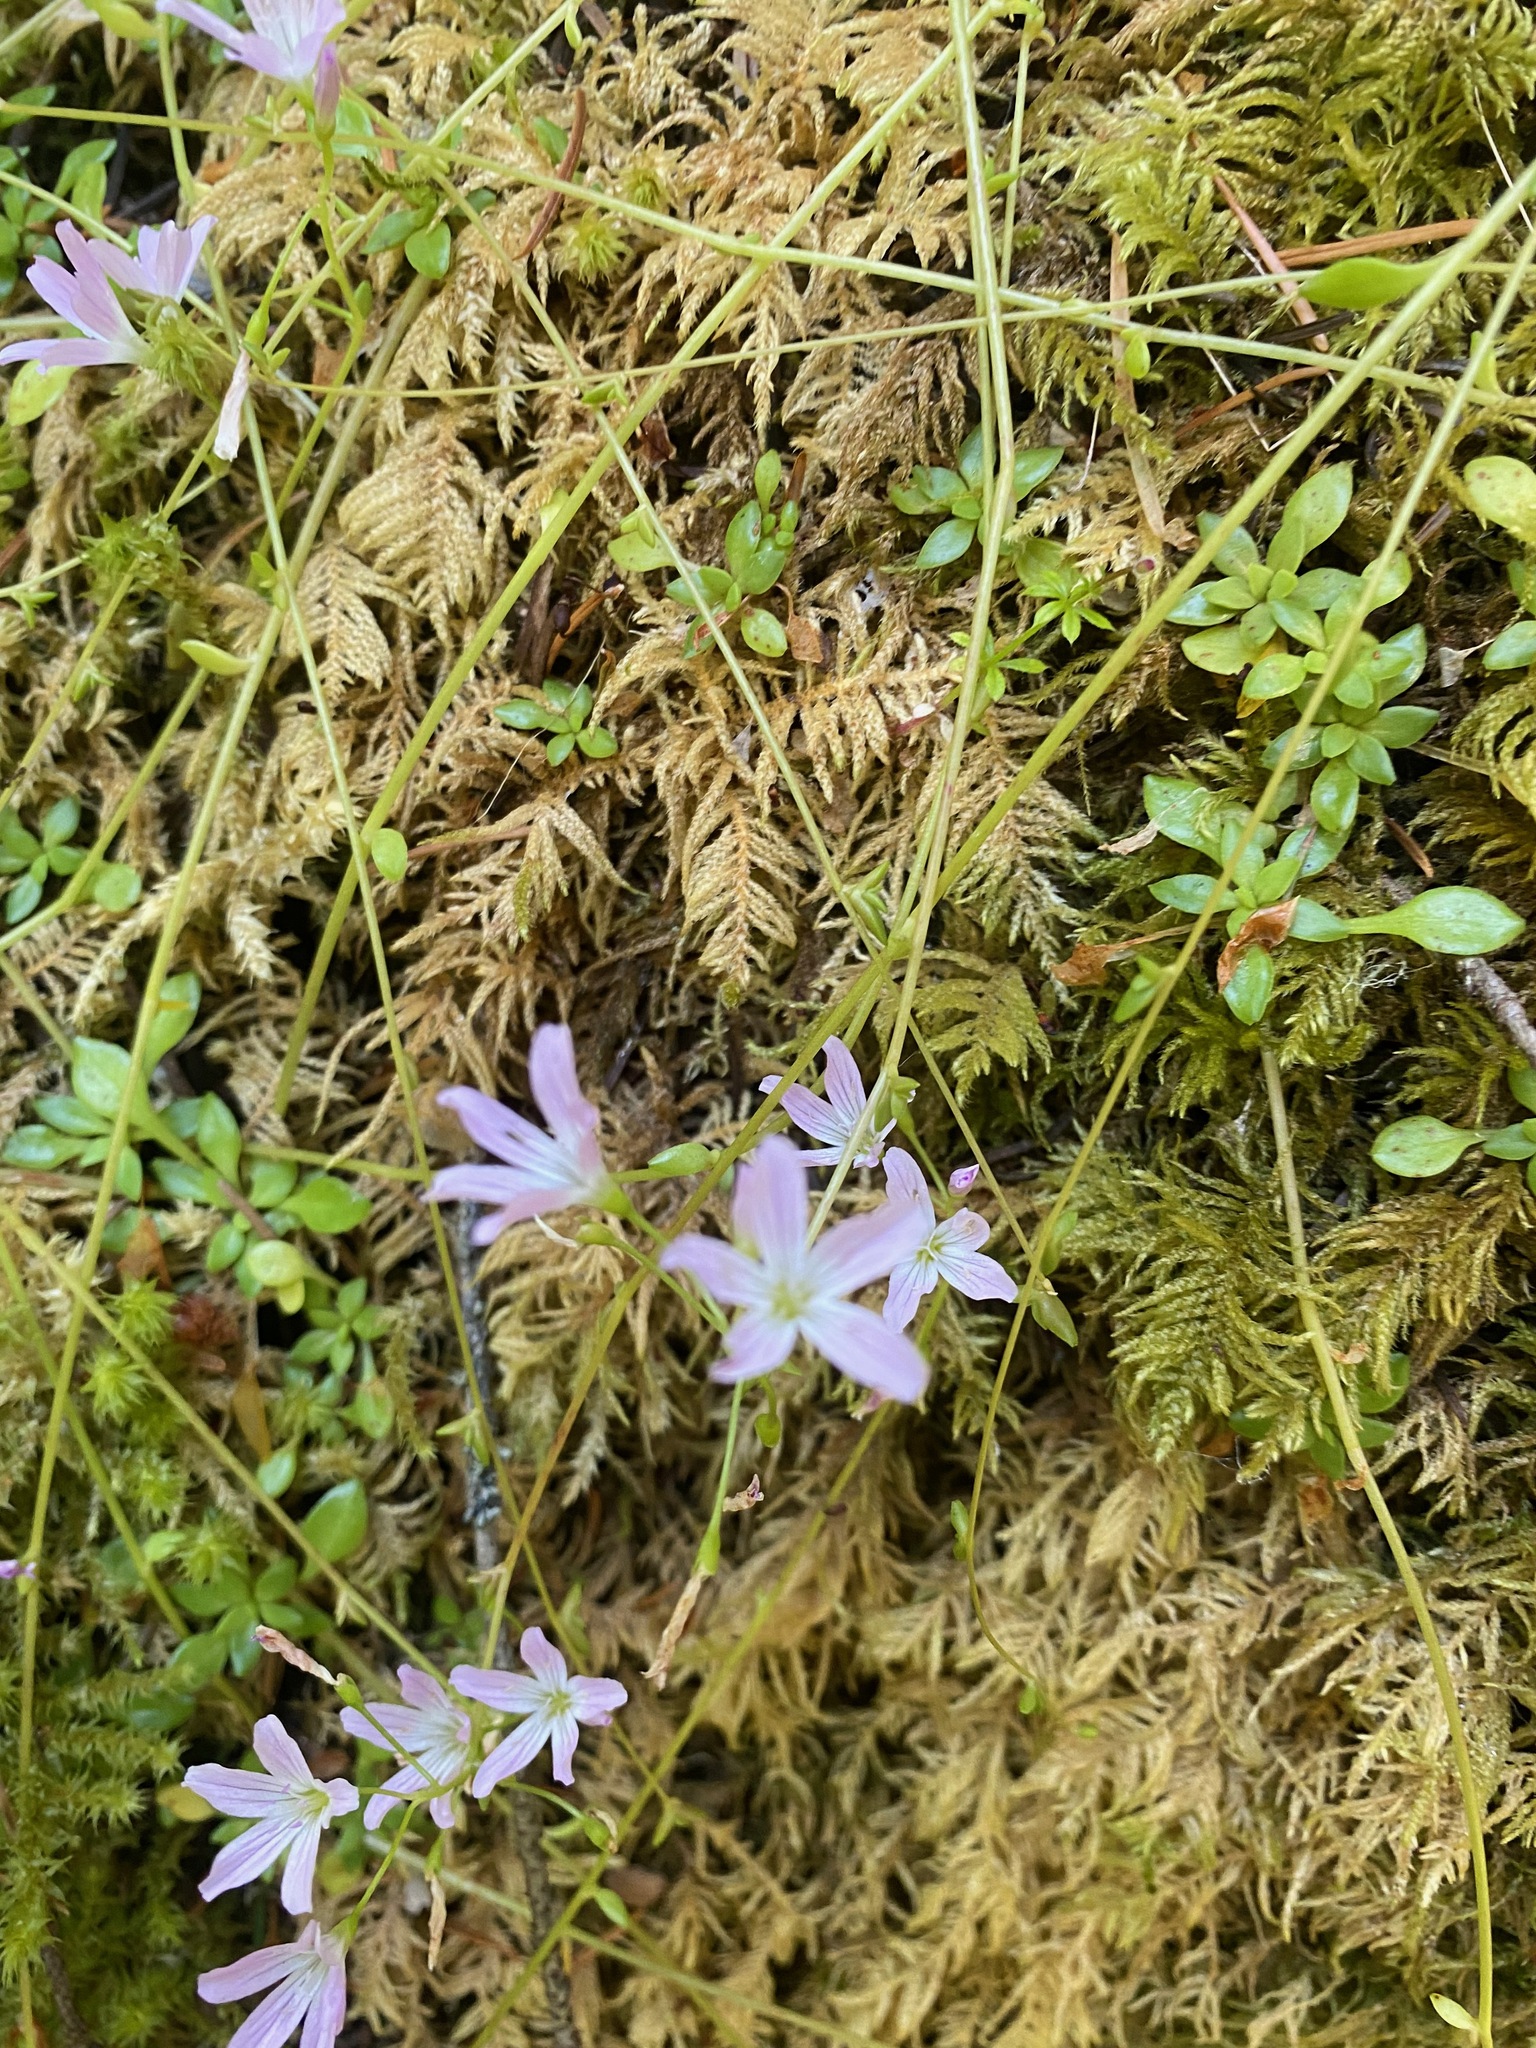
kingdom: Plantae
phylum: Tracheophyta
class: Magnoliopsida
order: Caryophyllales
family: Montiaceae
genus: Montia
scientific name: Montia parvifolia
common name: Small-leaved blinks
